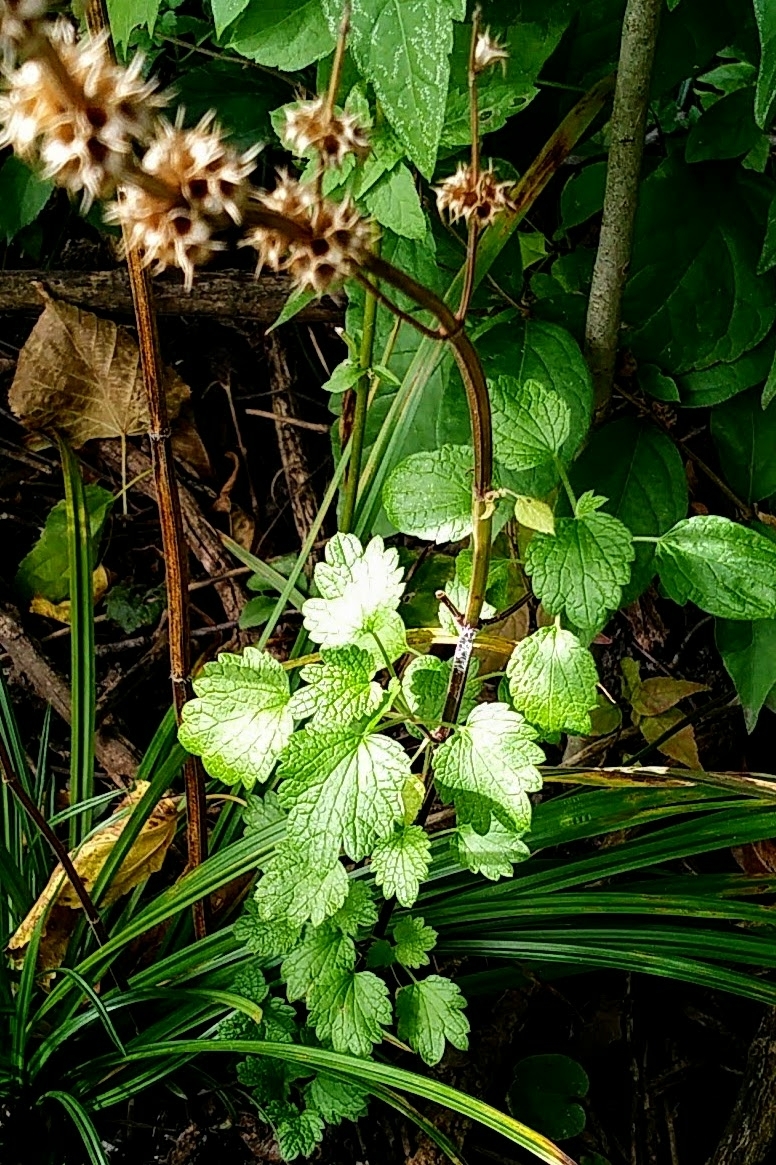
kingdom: Plantae
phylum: Tracheophyta
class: Magnoliopsida
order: Lamiales
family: Lamiaceae
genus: Leonurus
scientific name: Leonurus cardiaca
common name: Motherwort
